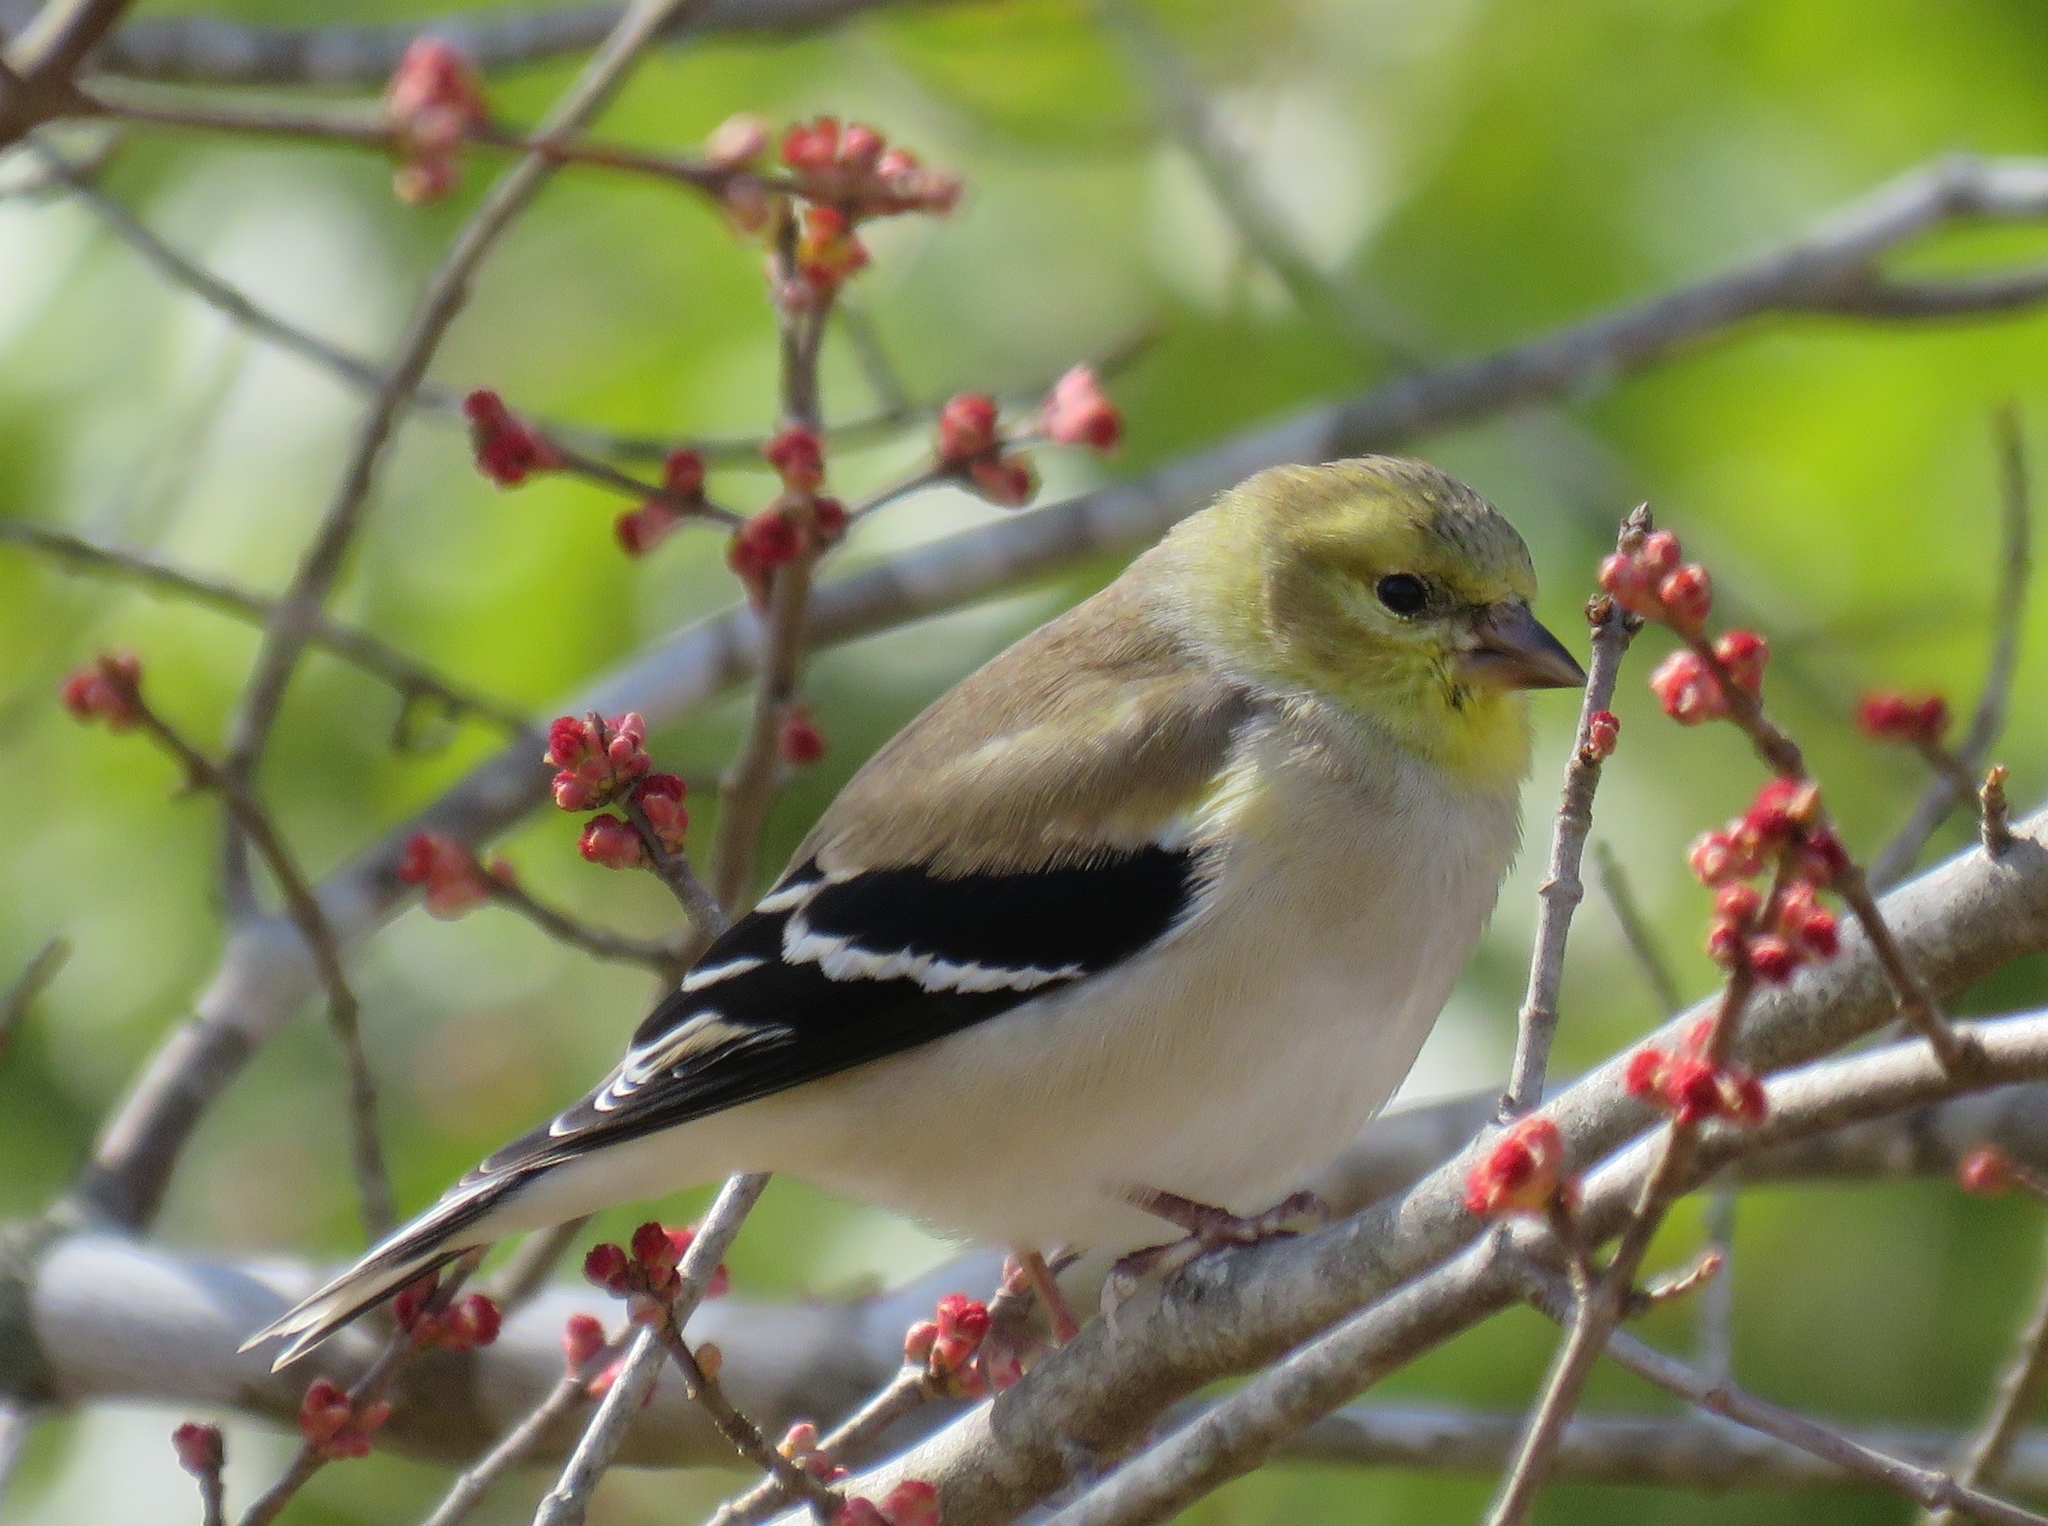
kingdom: Animalia
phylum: Chordata
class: Aves
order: Passeriformes
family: Fringillidae
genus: Spinus
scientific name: Spinus tristis
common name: American goldfinch
